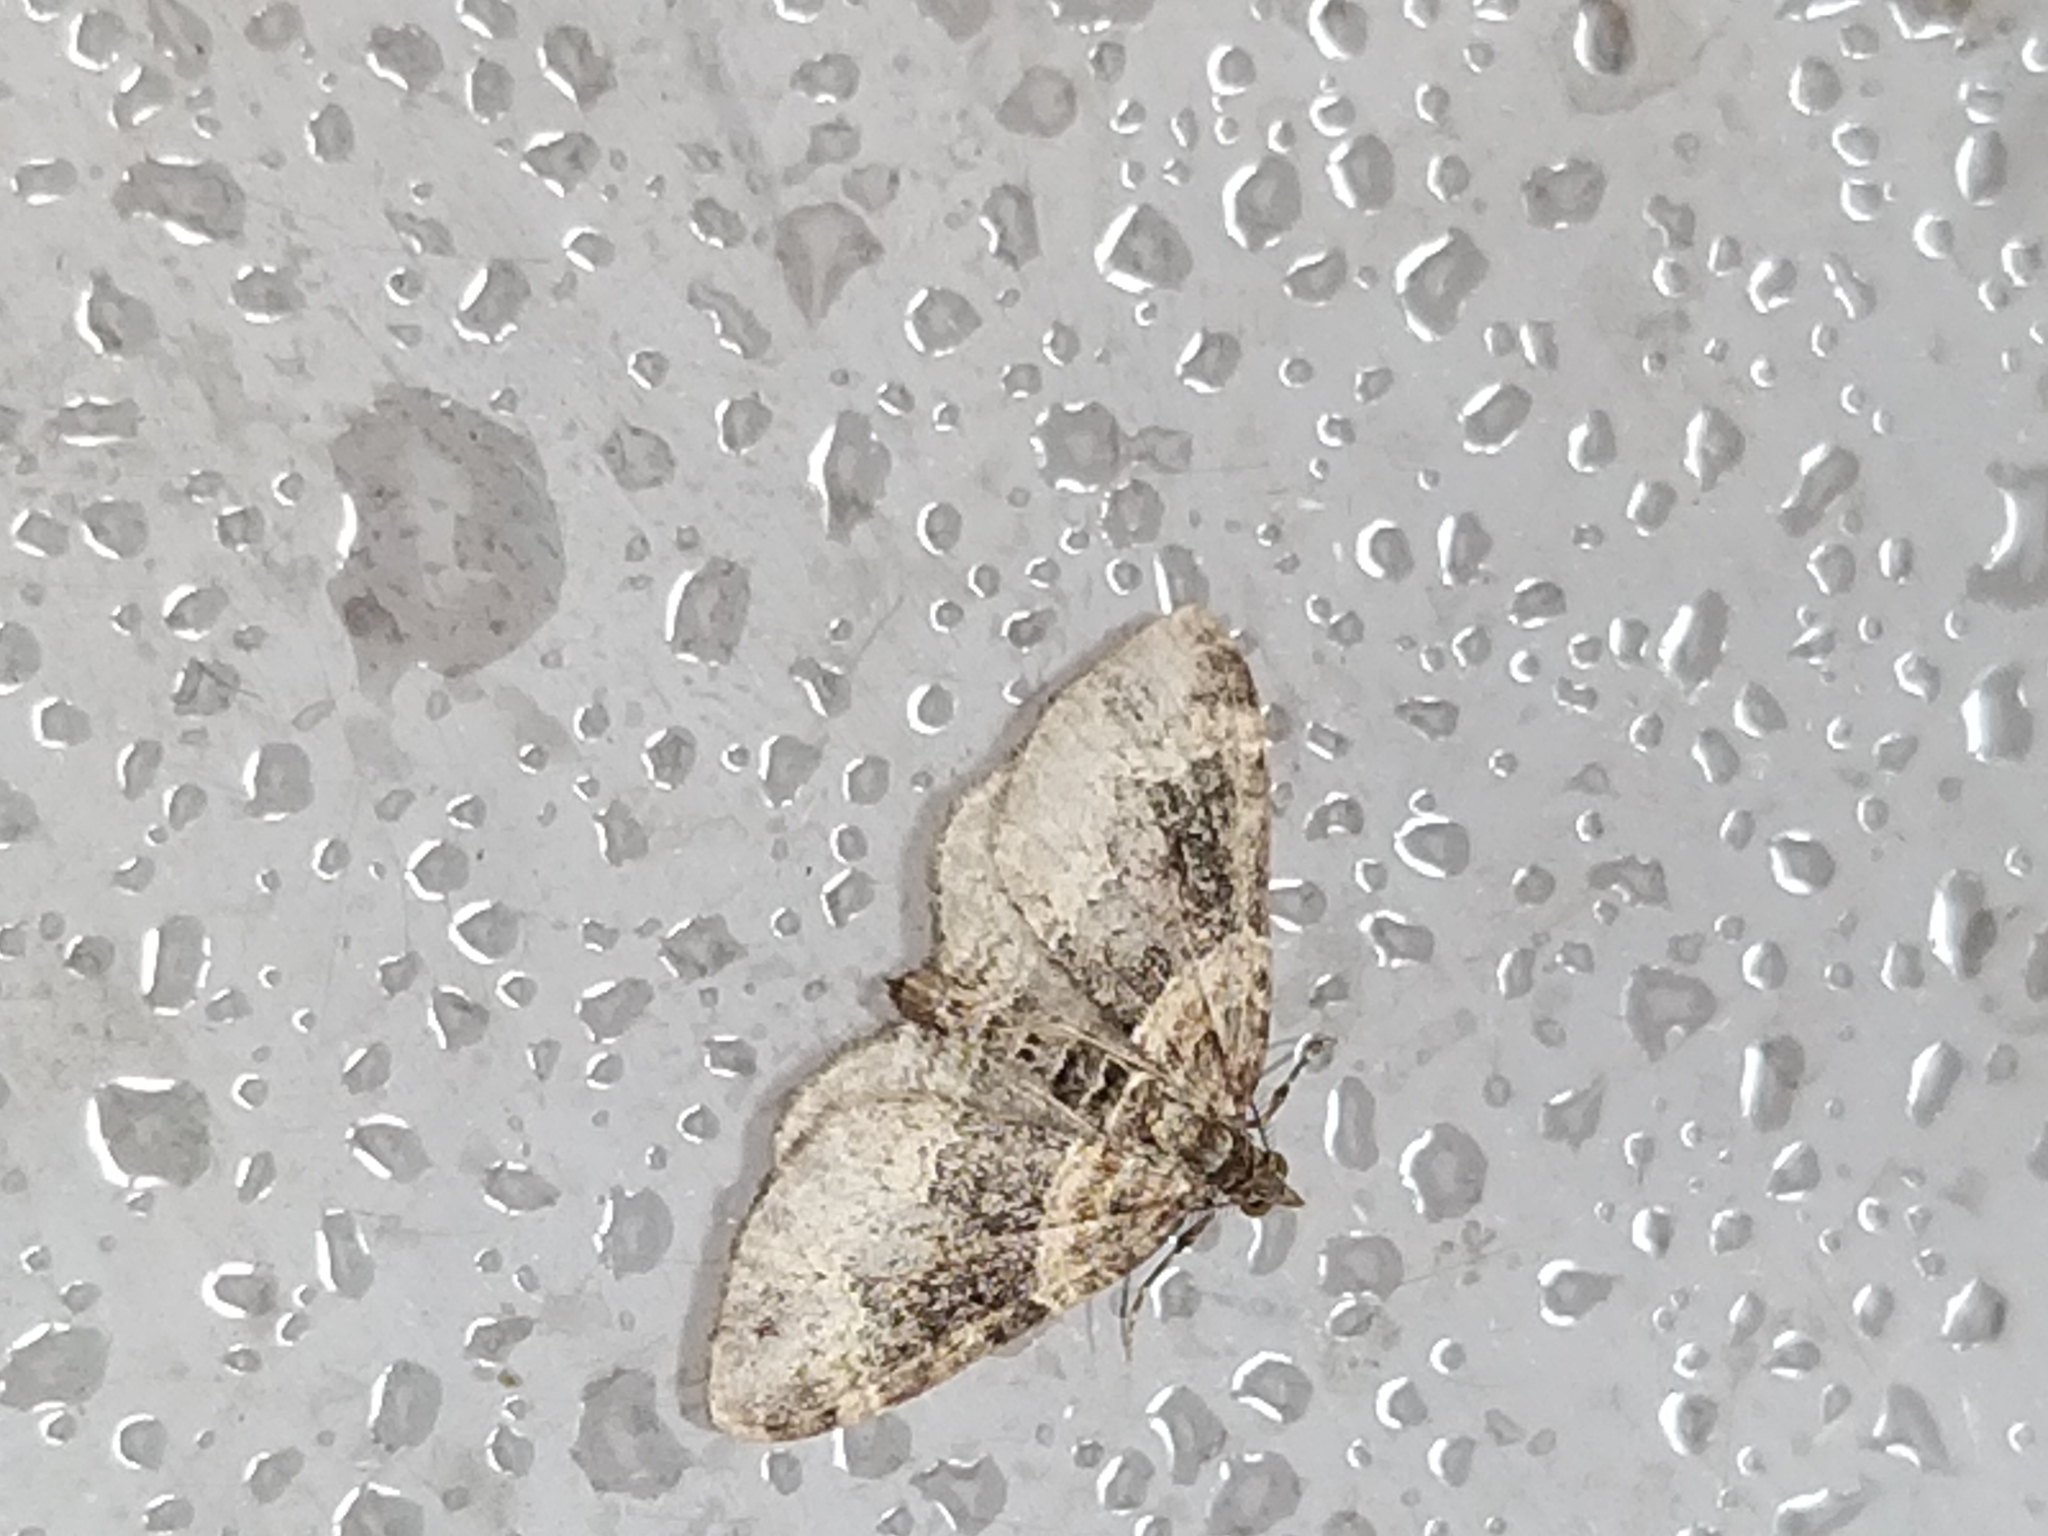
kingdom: Animalia
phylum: Arthropoda
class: Insecta
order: Lepidoptera
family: Geometridae
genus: Xanthorhoe
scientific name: Xanthorhoe ferrugata
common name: Dark-barred twin-spot carpet
